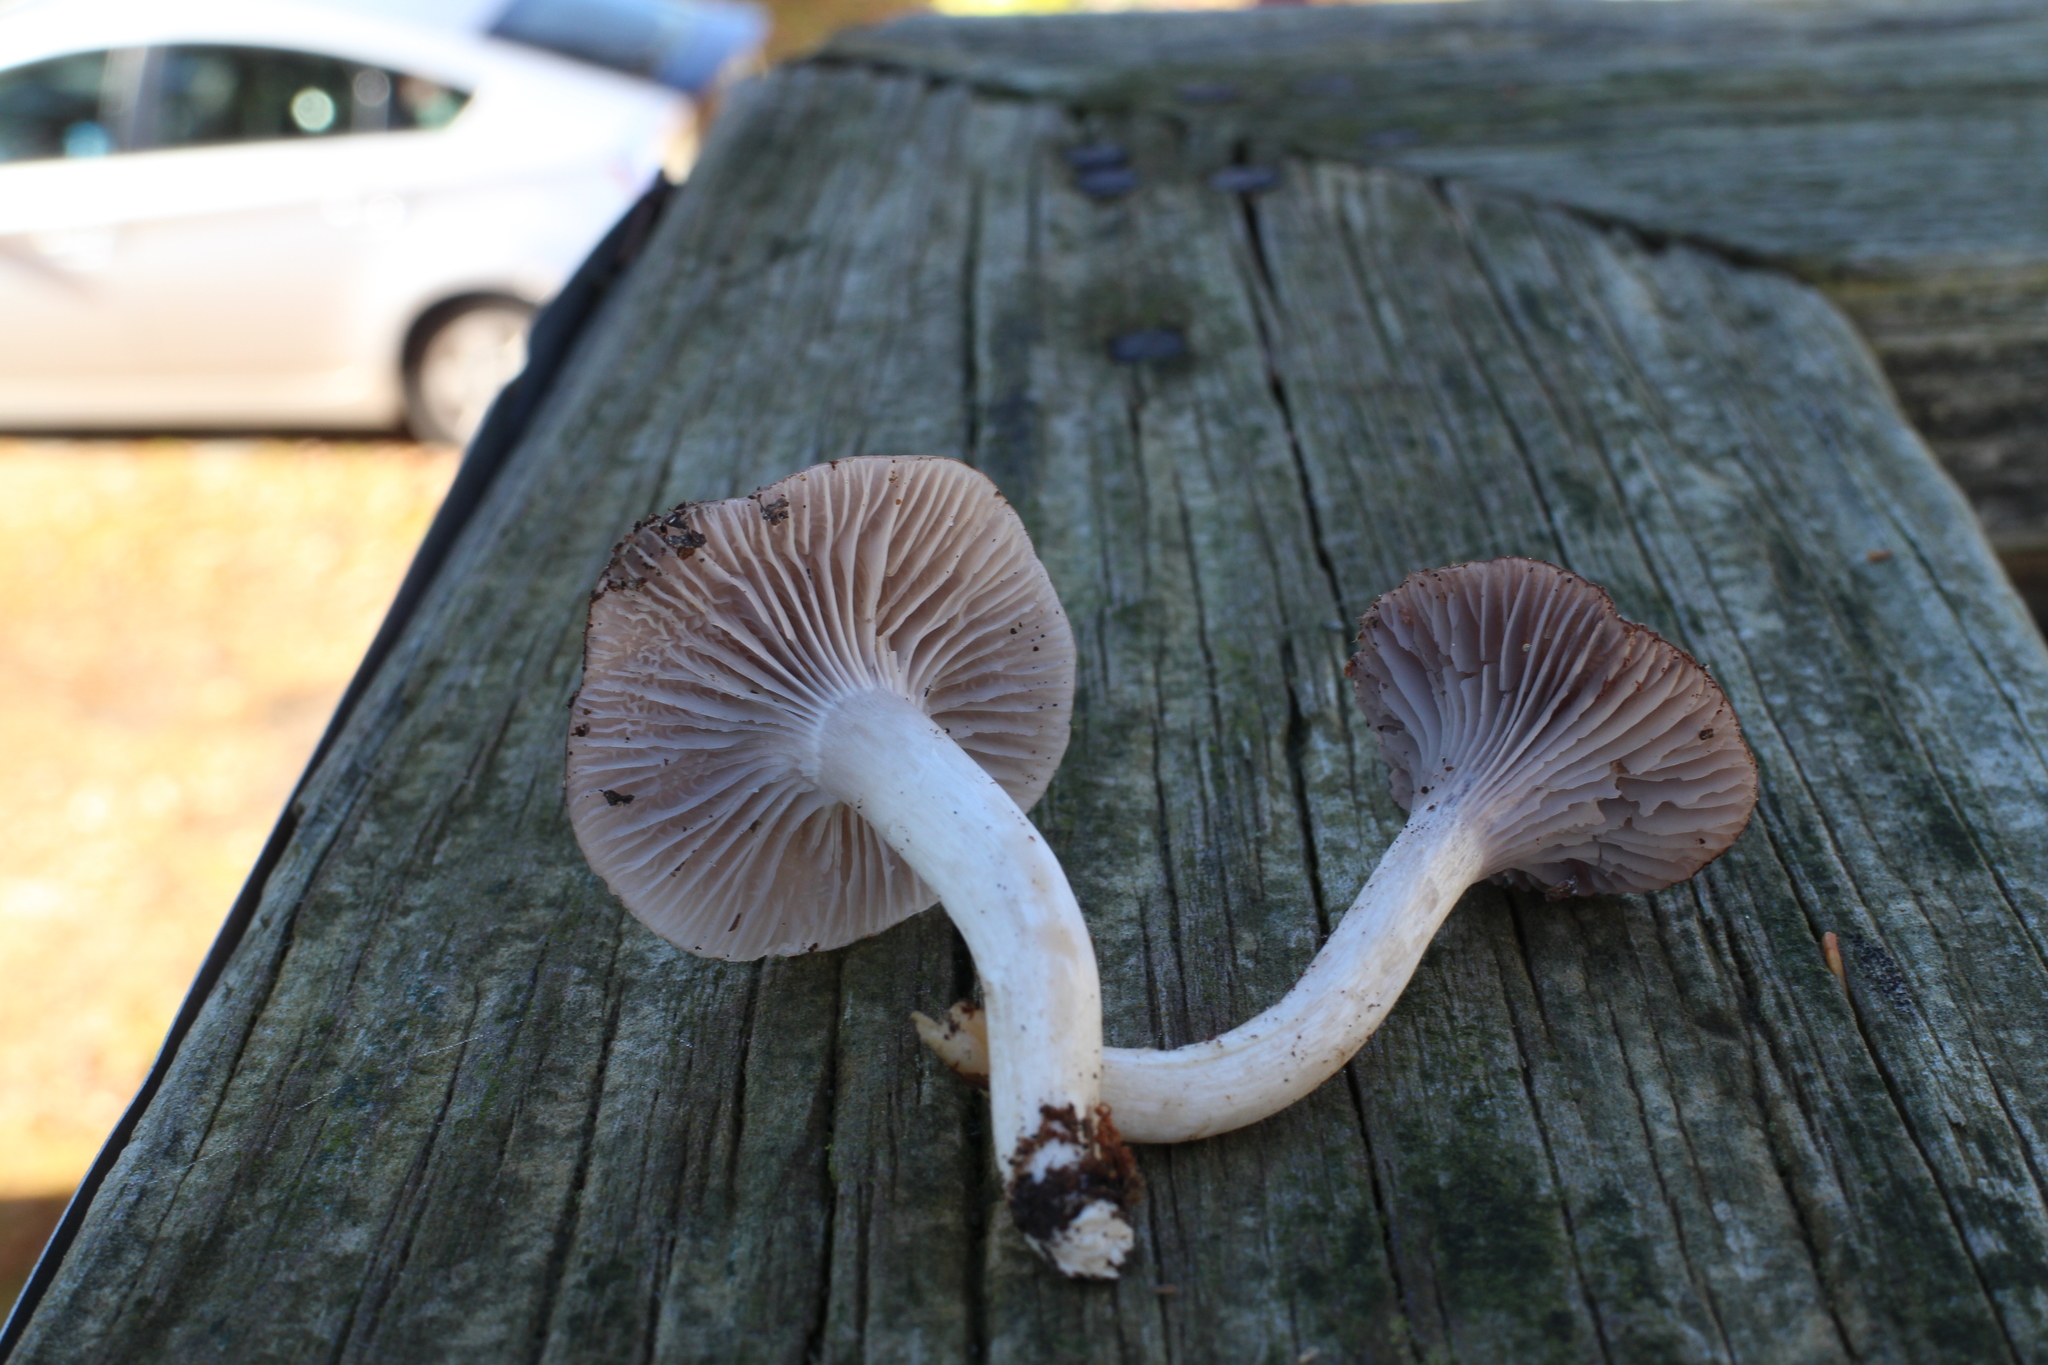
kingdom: Fungi
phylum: Basidiomycota
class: Agaricomycetes
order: Agaricales
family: Hygrophoraceae
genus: Cuphophyllus
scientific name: Cuphophyllus lacmus
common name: Grey waxcap
